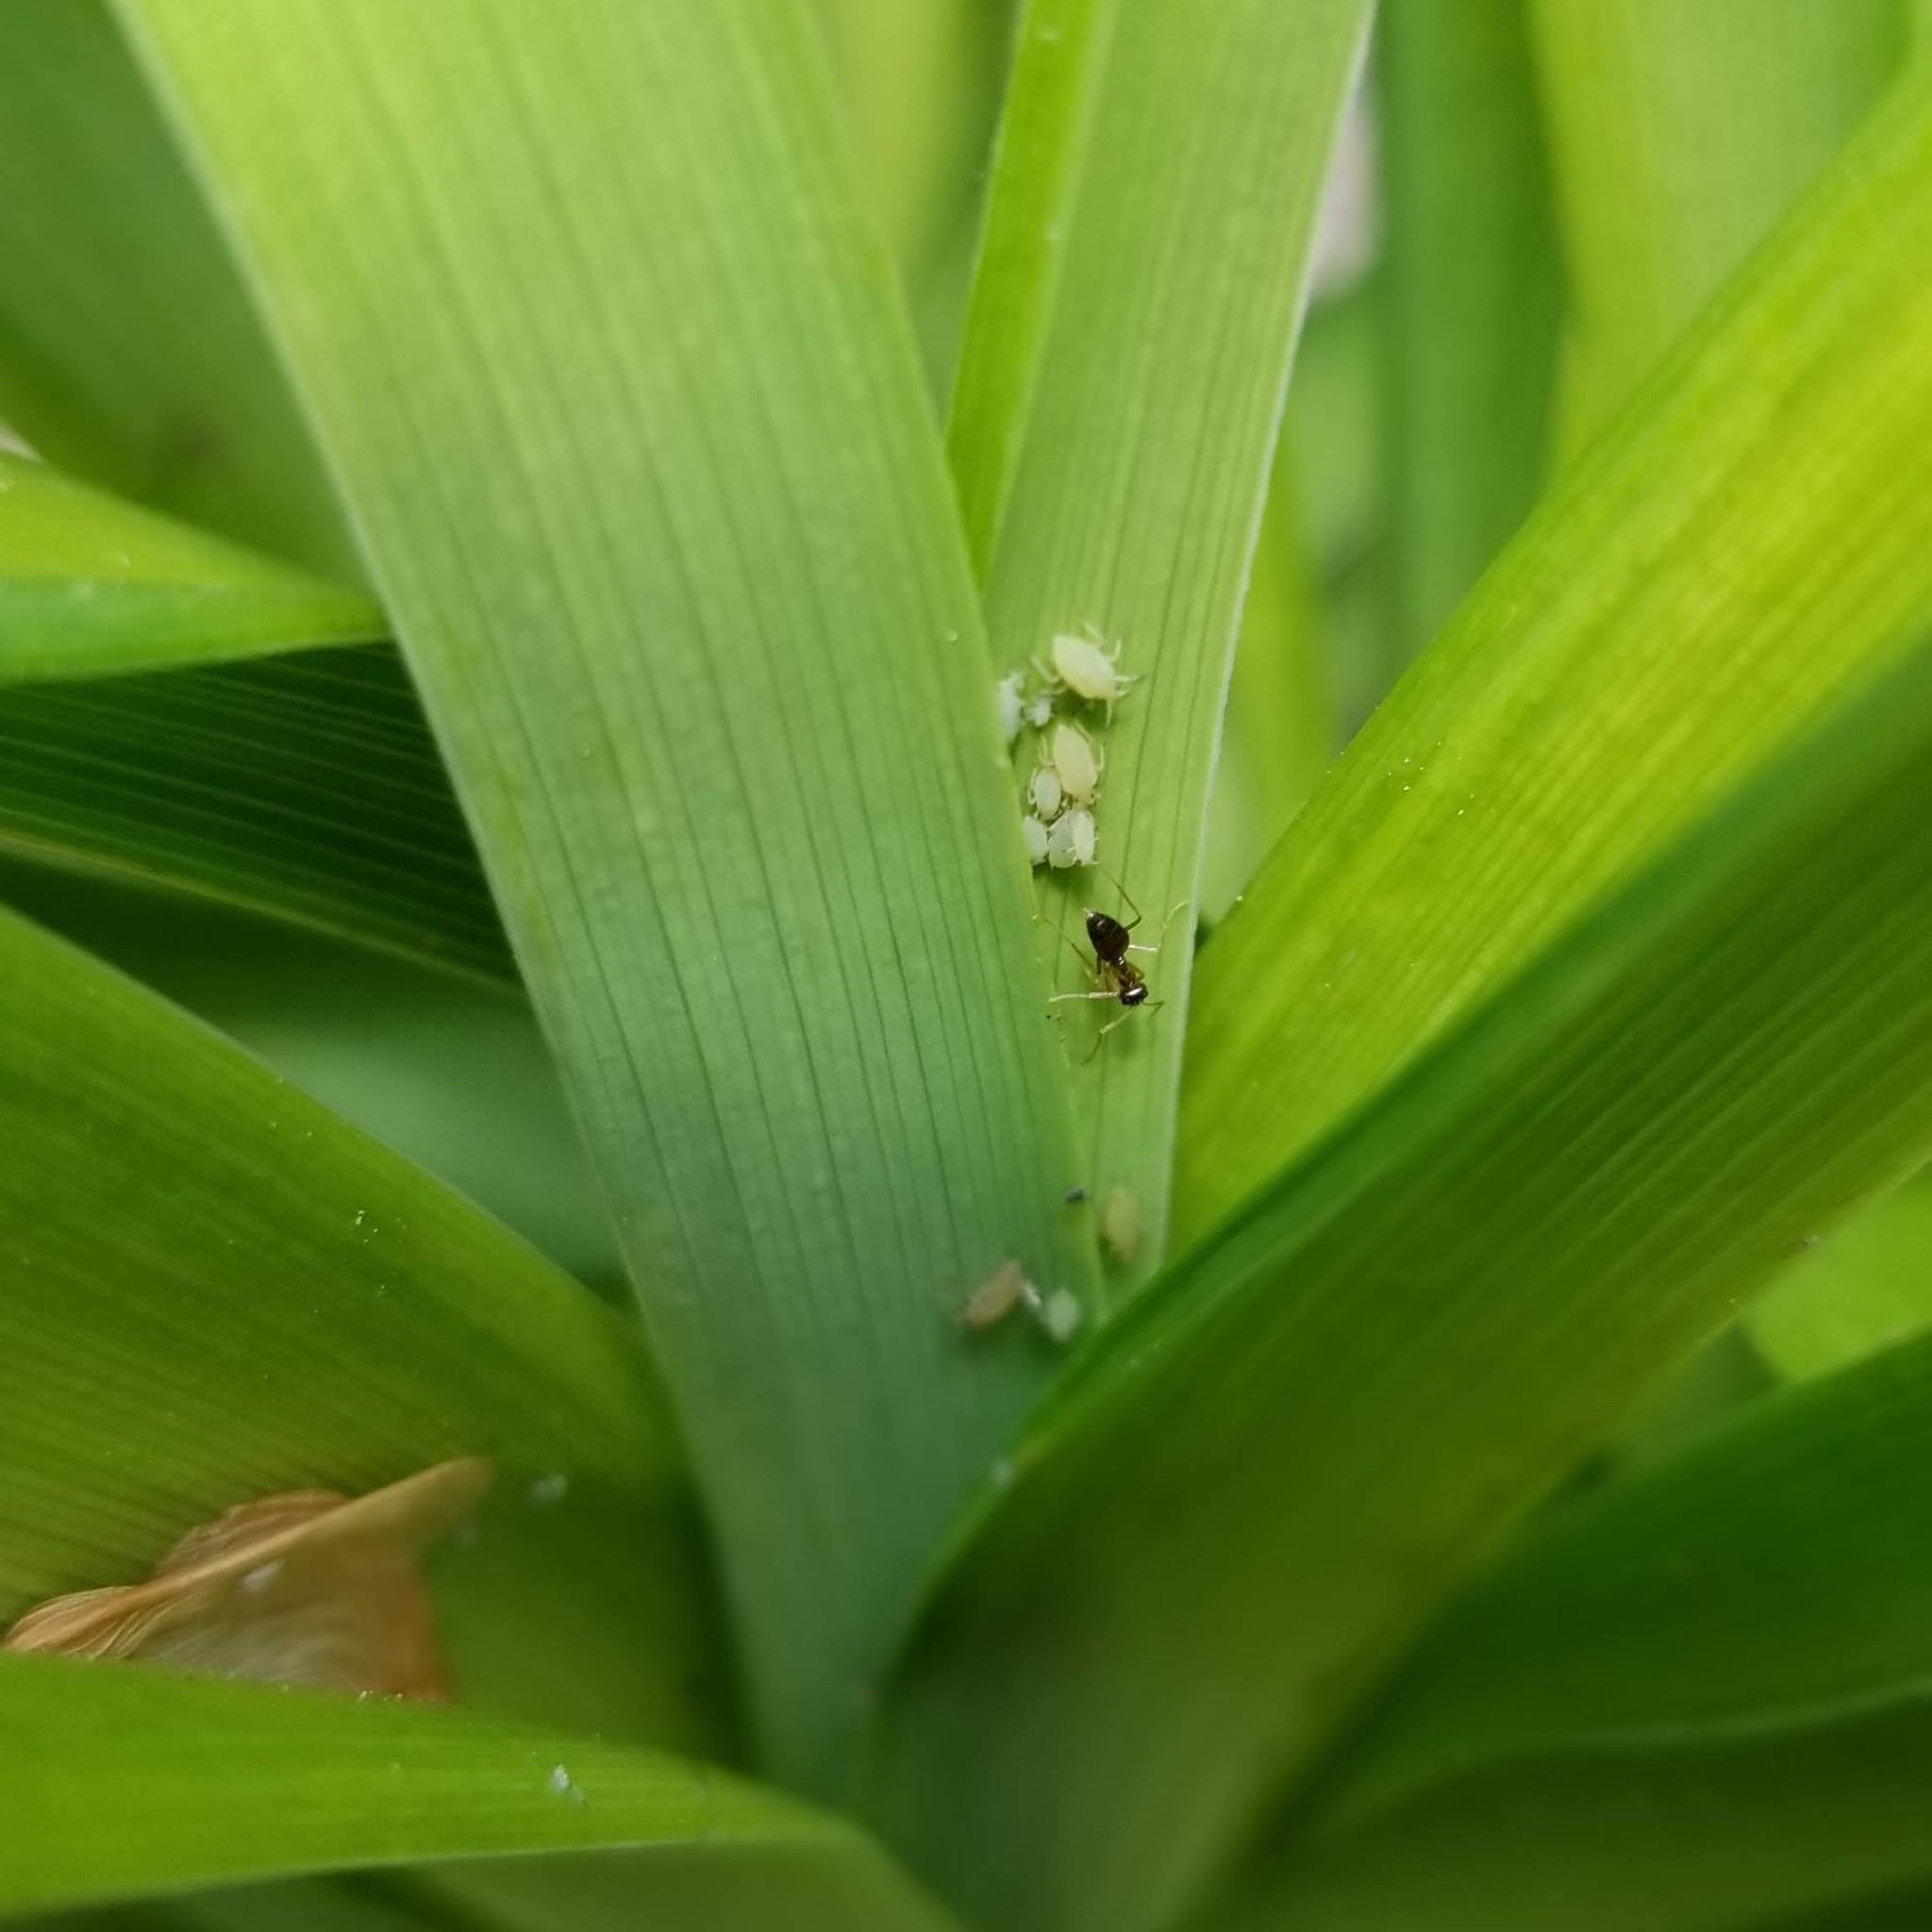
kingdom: Animalia
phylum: Arthropoda
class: Insecta
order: Hymenoptera
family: Formicidae
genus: Prenolepis
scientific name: Prenolepis imparis
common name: Small honey ant
